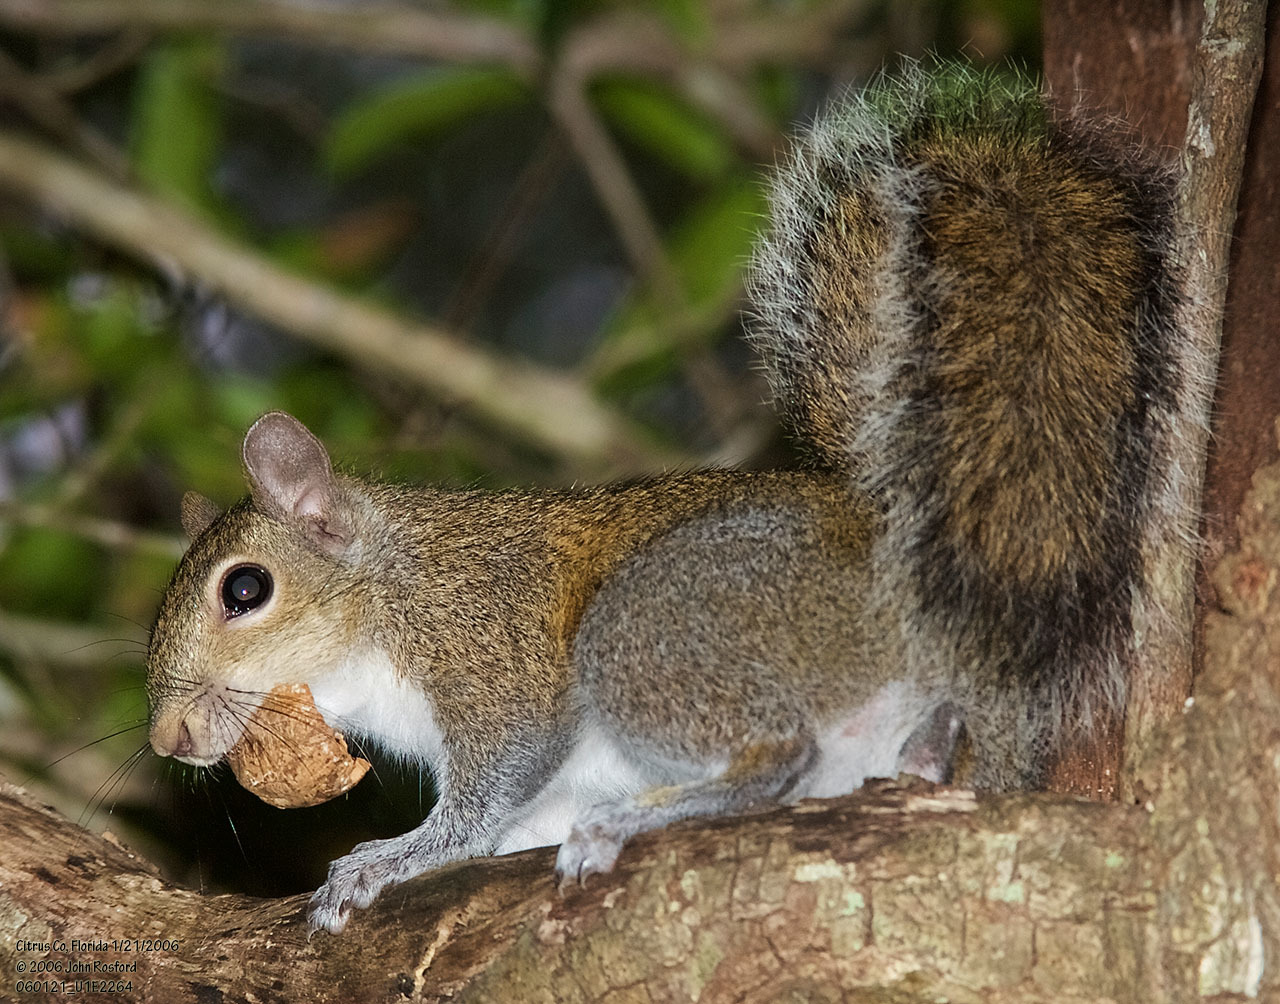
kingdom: Animalia
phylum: Chordata
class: Mammalia
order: Rodentia
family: Sciuridae
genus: Sciurus
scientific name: Sciurus carolinensis
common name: Eastern gray squirrel
